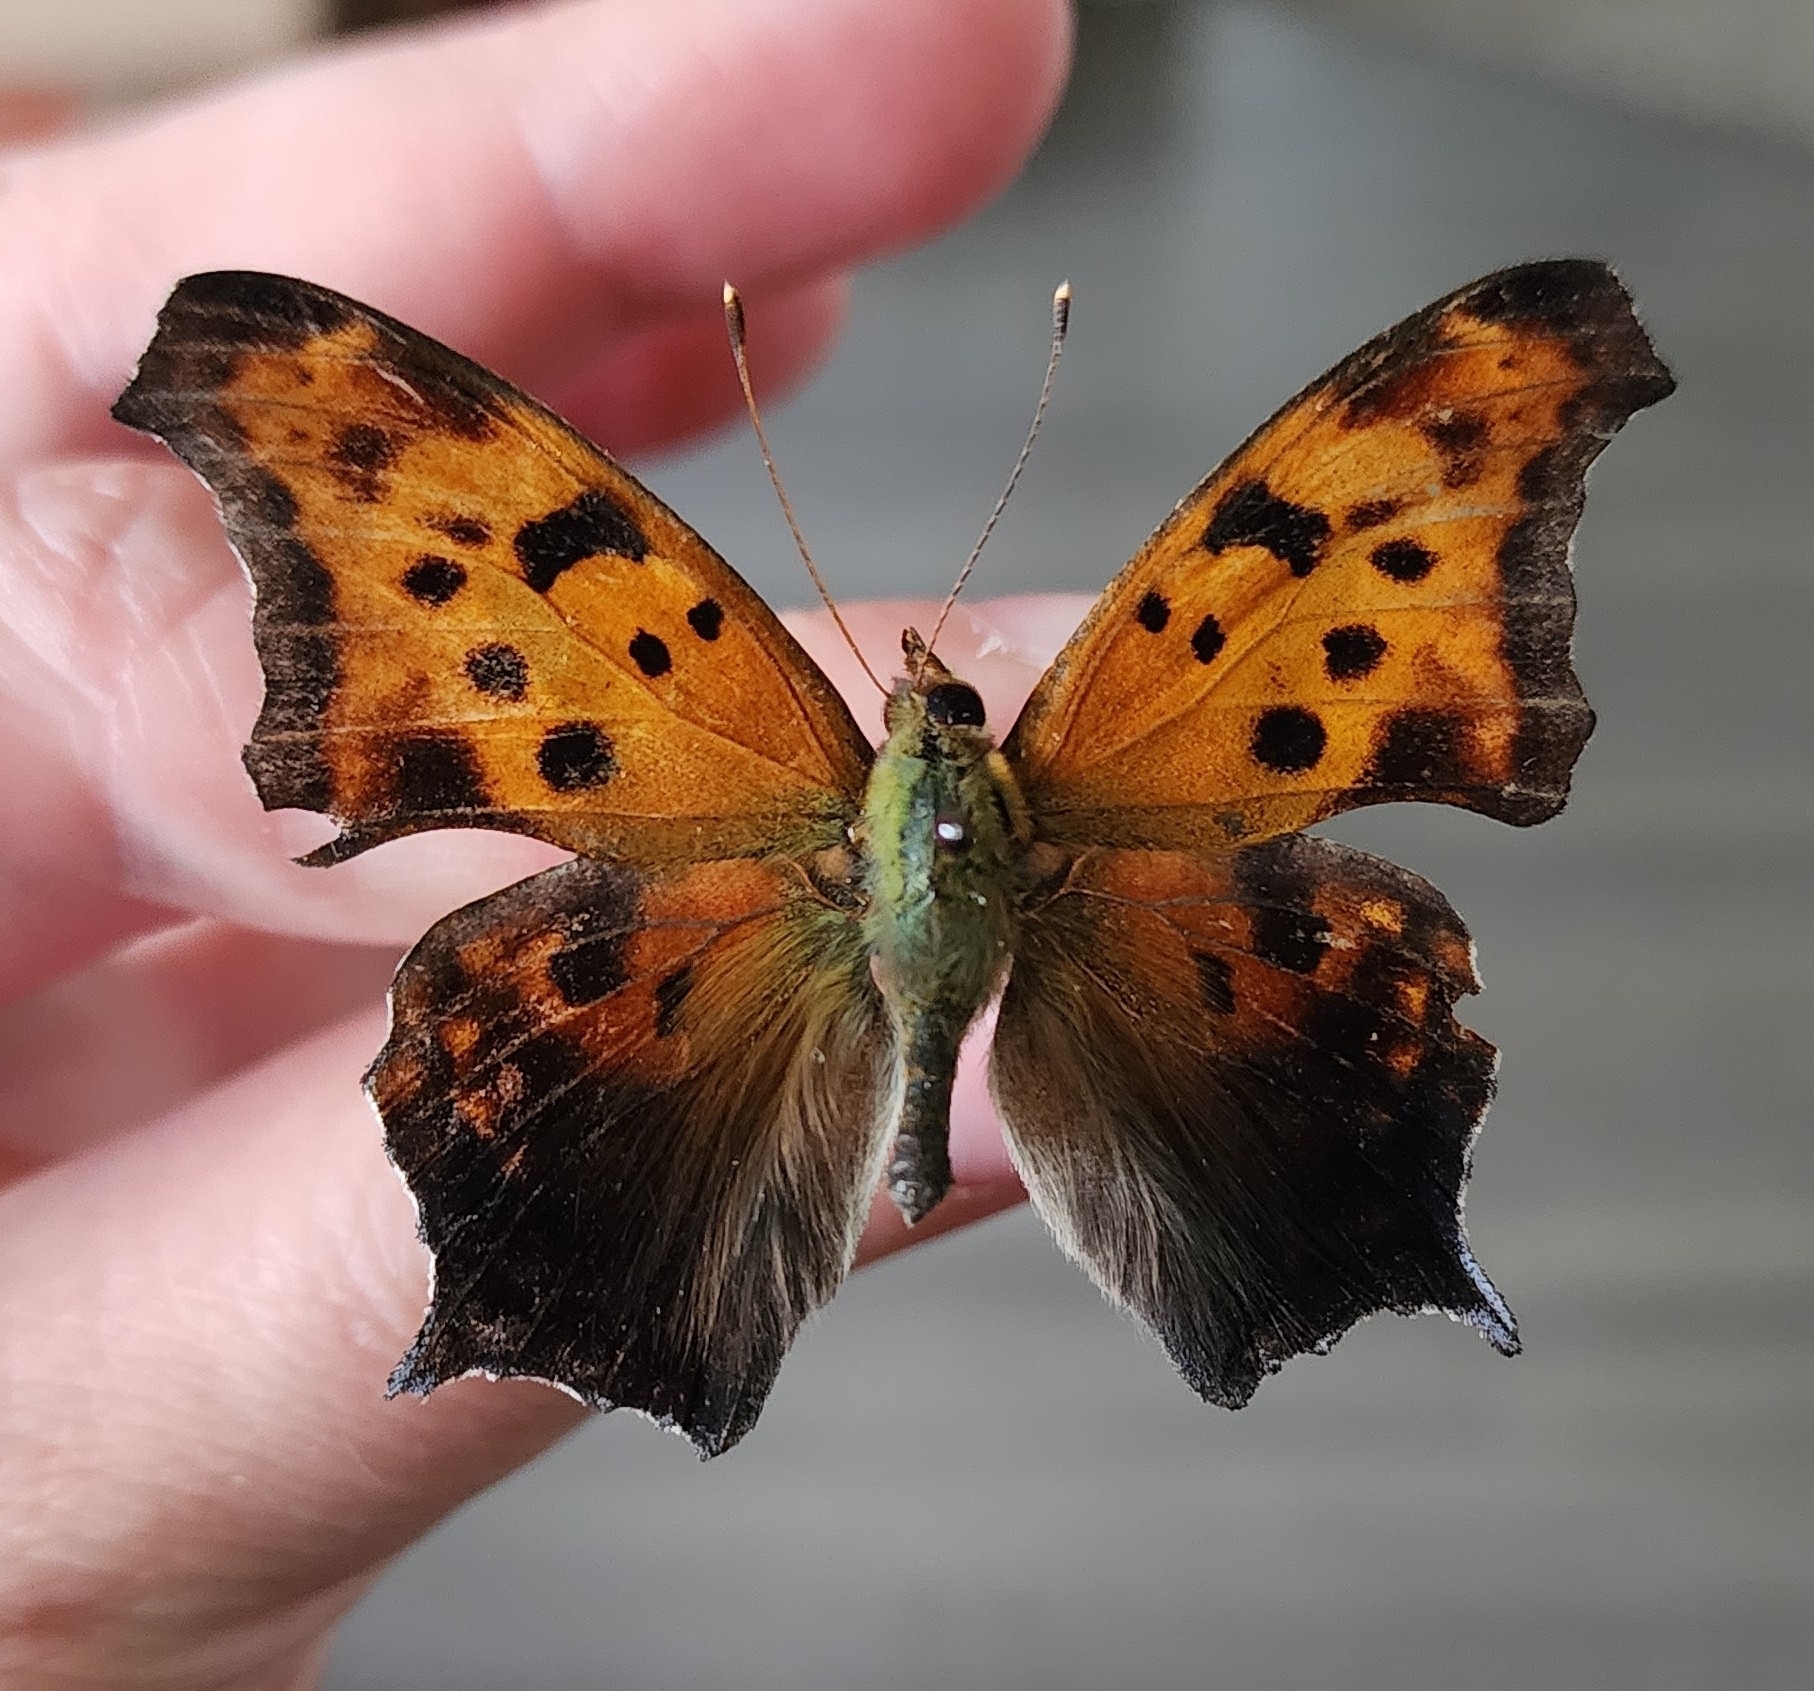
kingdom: Animalia
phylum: Arthropoda
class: Insecta
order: Lepidoptera
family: Nymphalidae
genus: Polygonia
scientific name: Polygonia interrogationis
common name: Question mark
